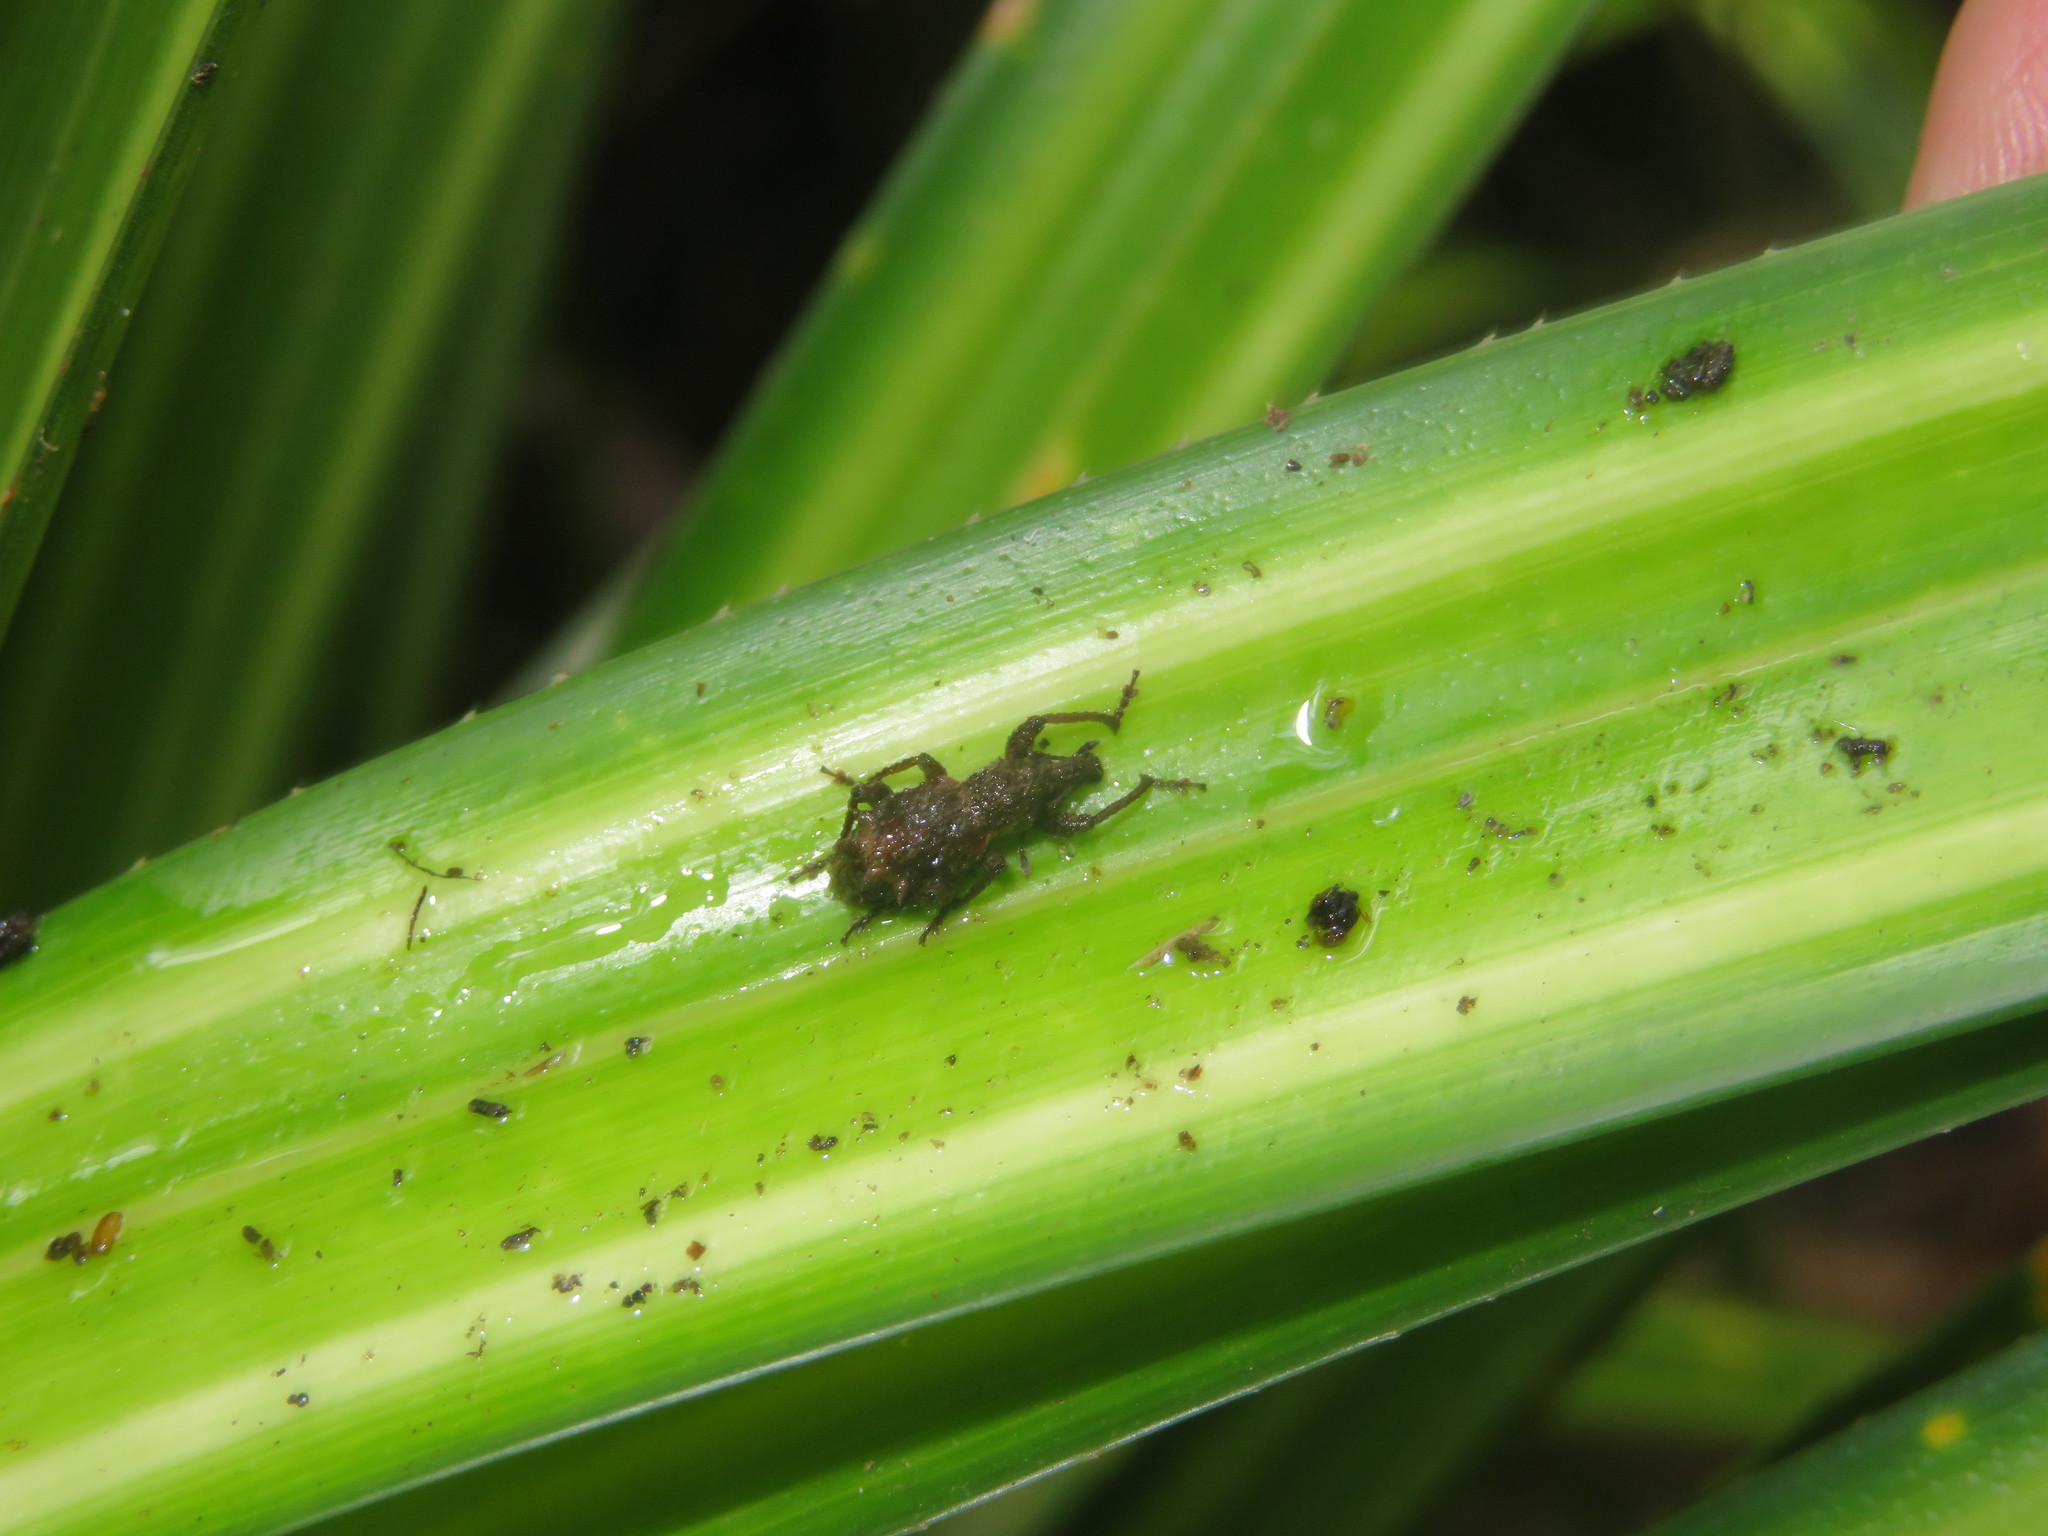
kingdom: Animalia
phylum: Arthropoda
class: Insecta
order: Coleoptera
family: Curculionidae
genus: Catoptes
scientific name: Catoptes coronatus
